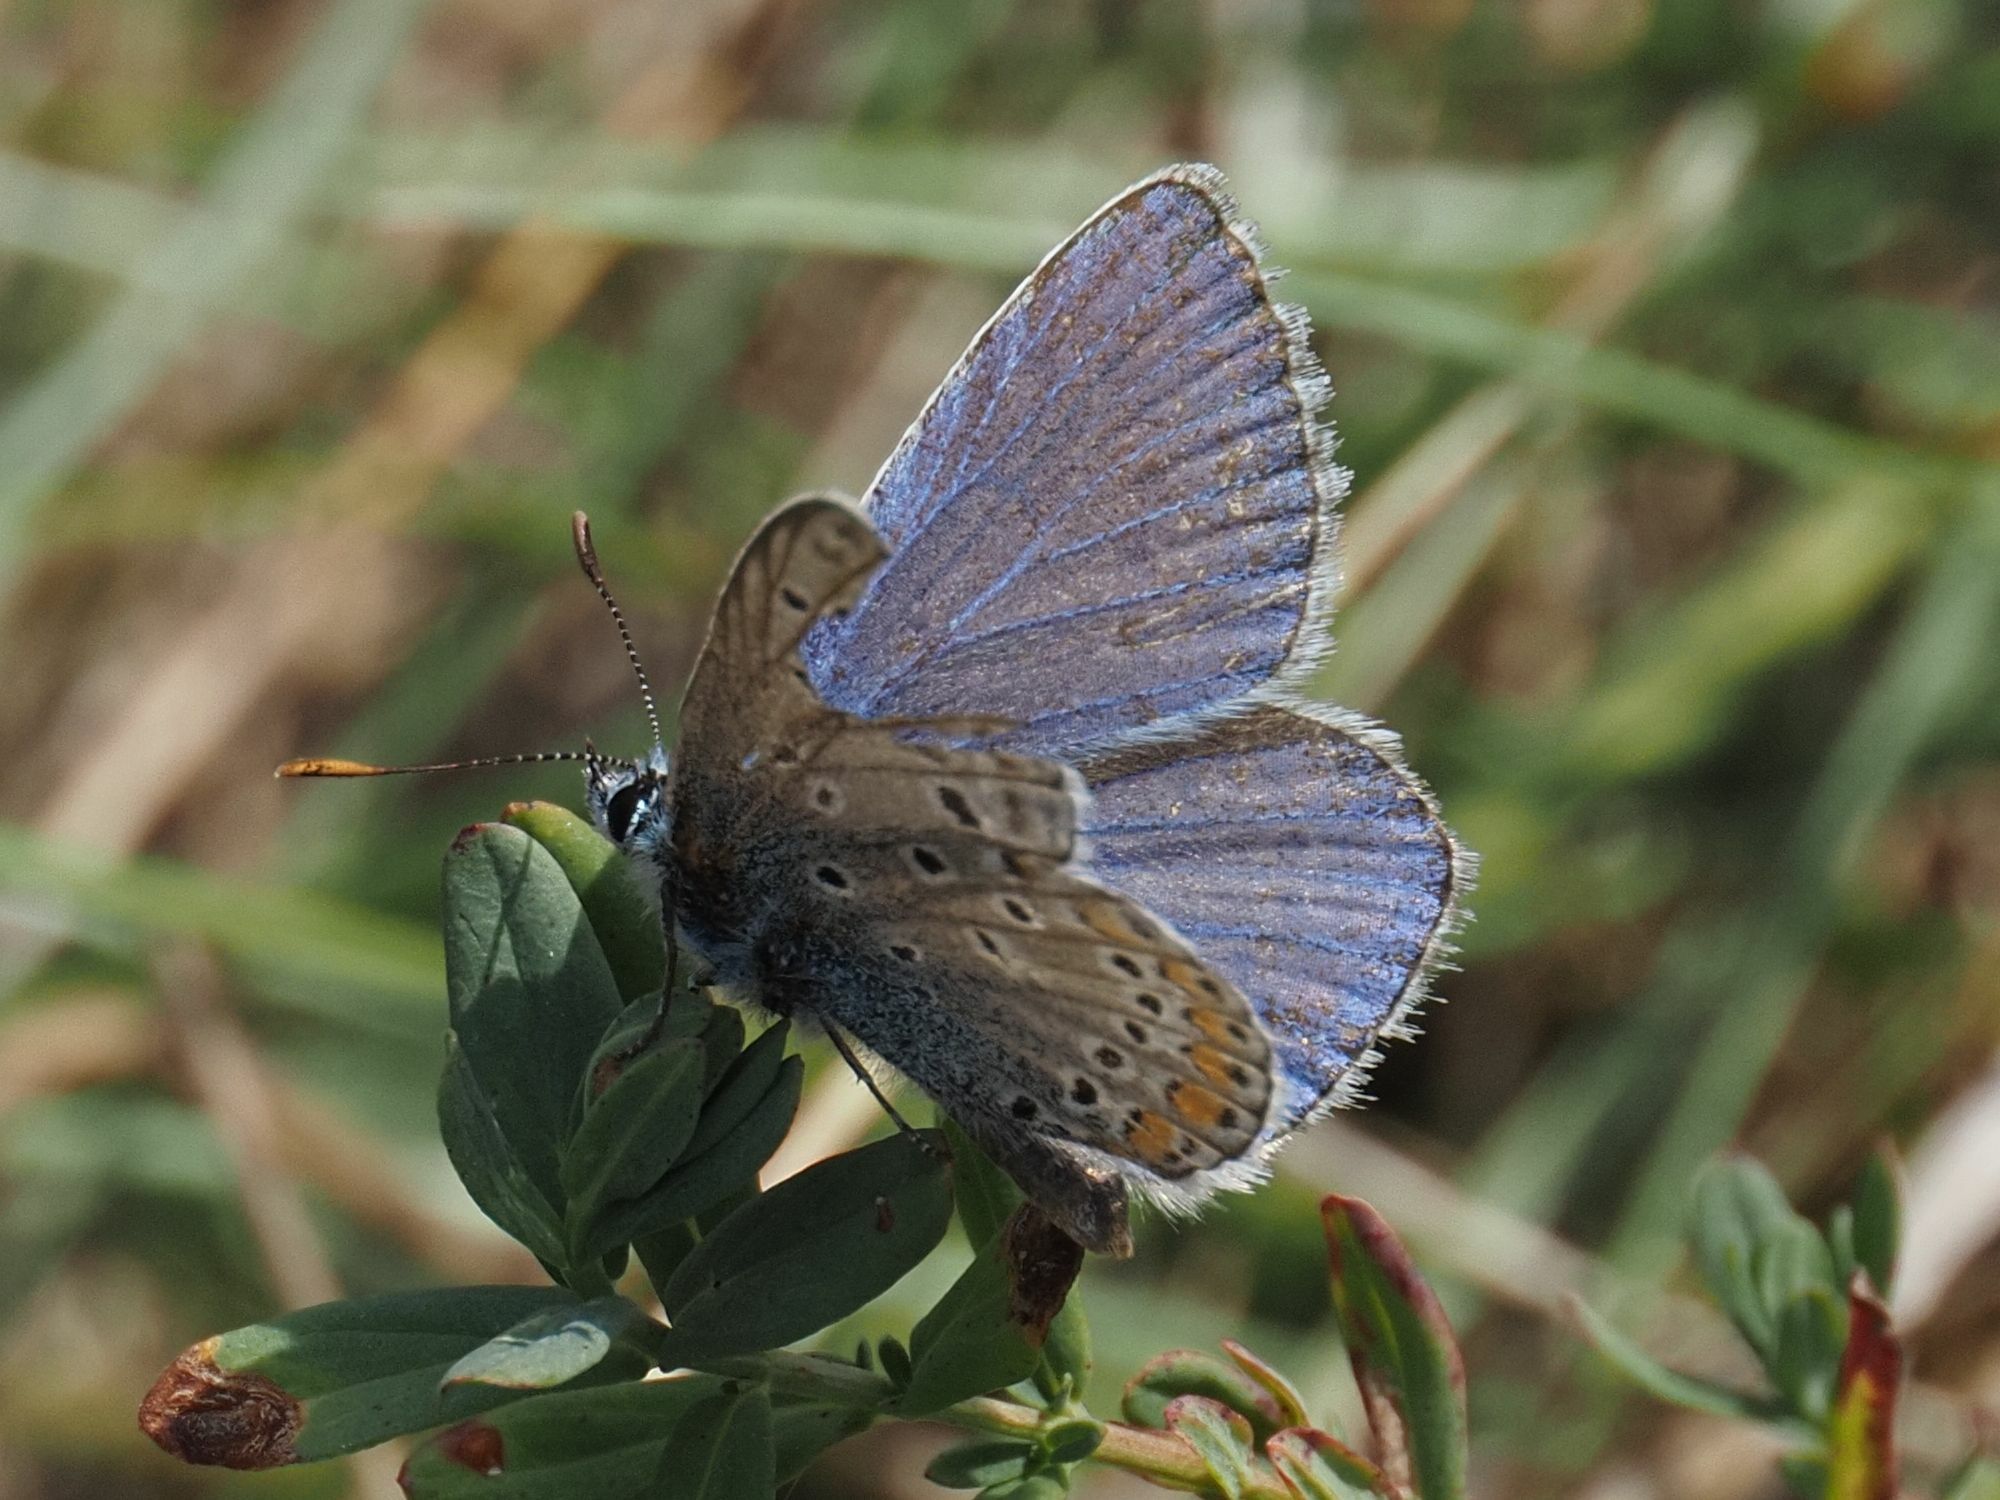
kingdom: Animalia
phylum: Arthropoda
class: Insecta
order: Lepidoptera
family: Lycaenidae
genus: Polyommatus
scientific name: Polyommatus icarus
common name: Common blue
